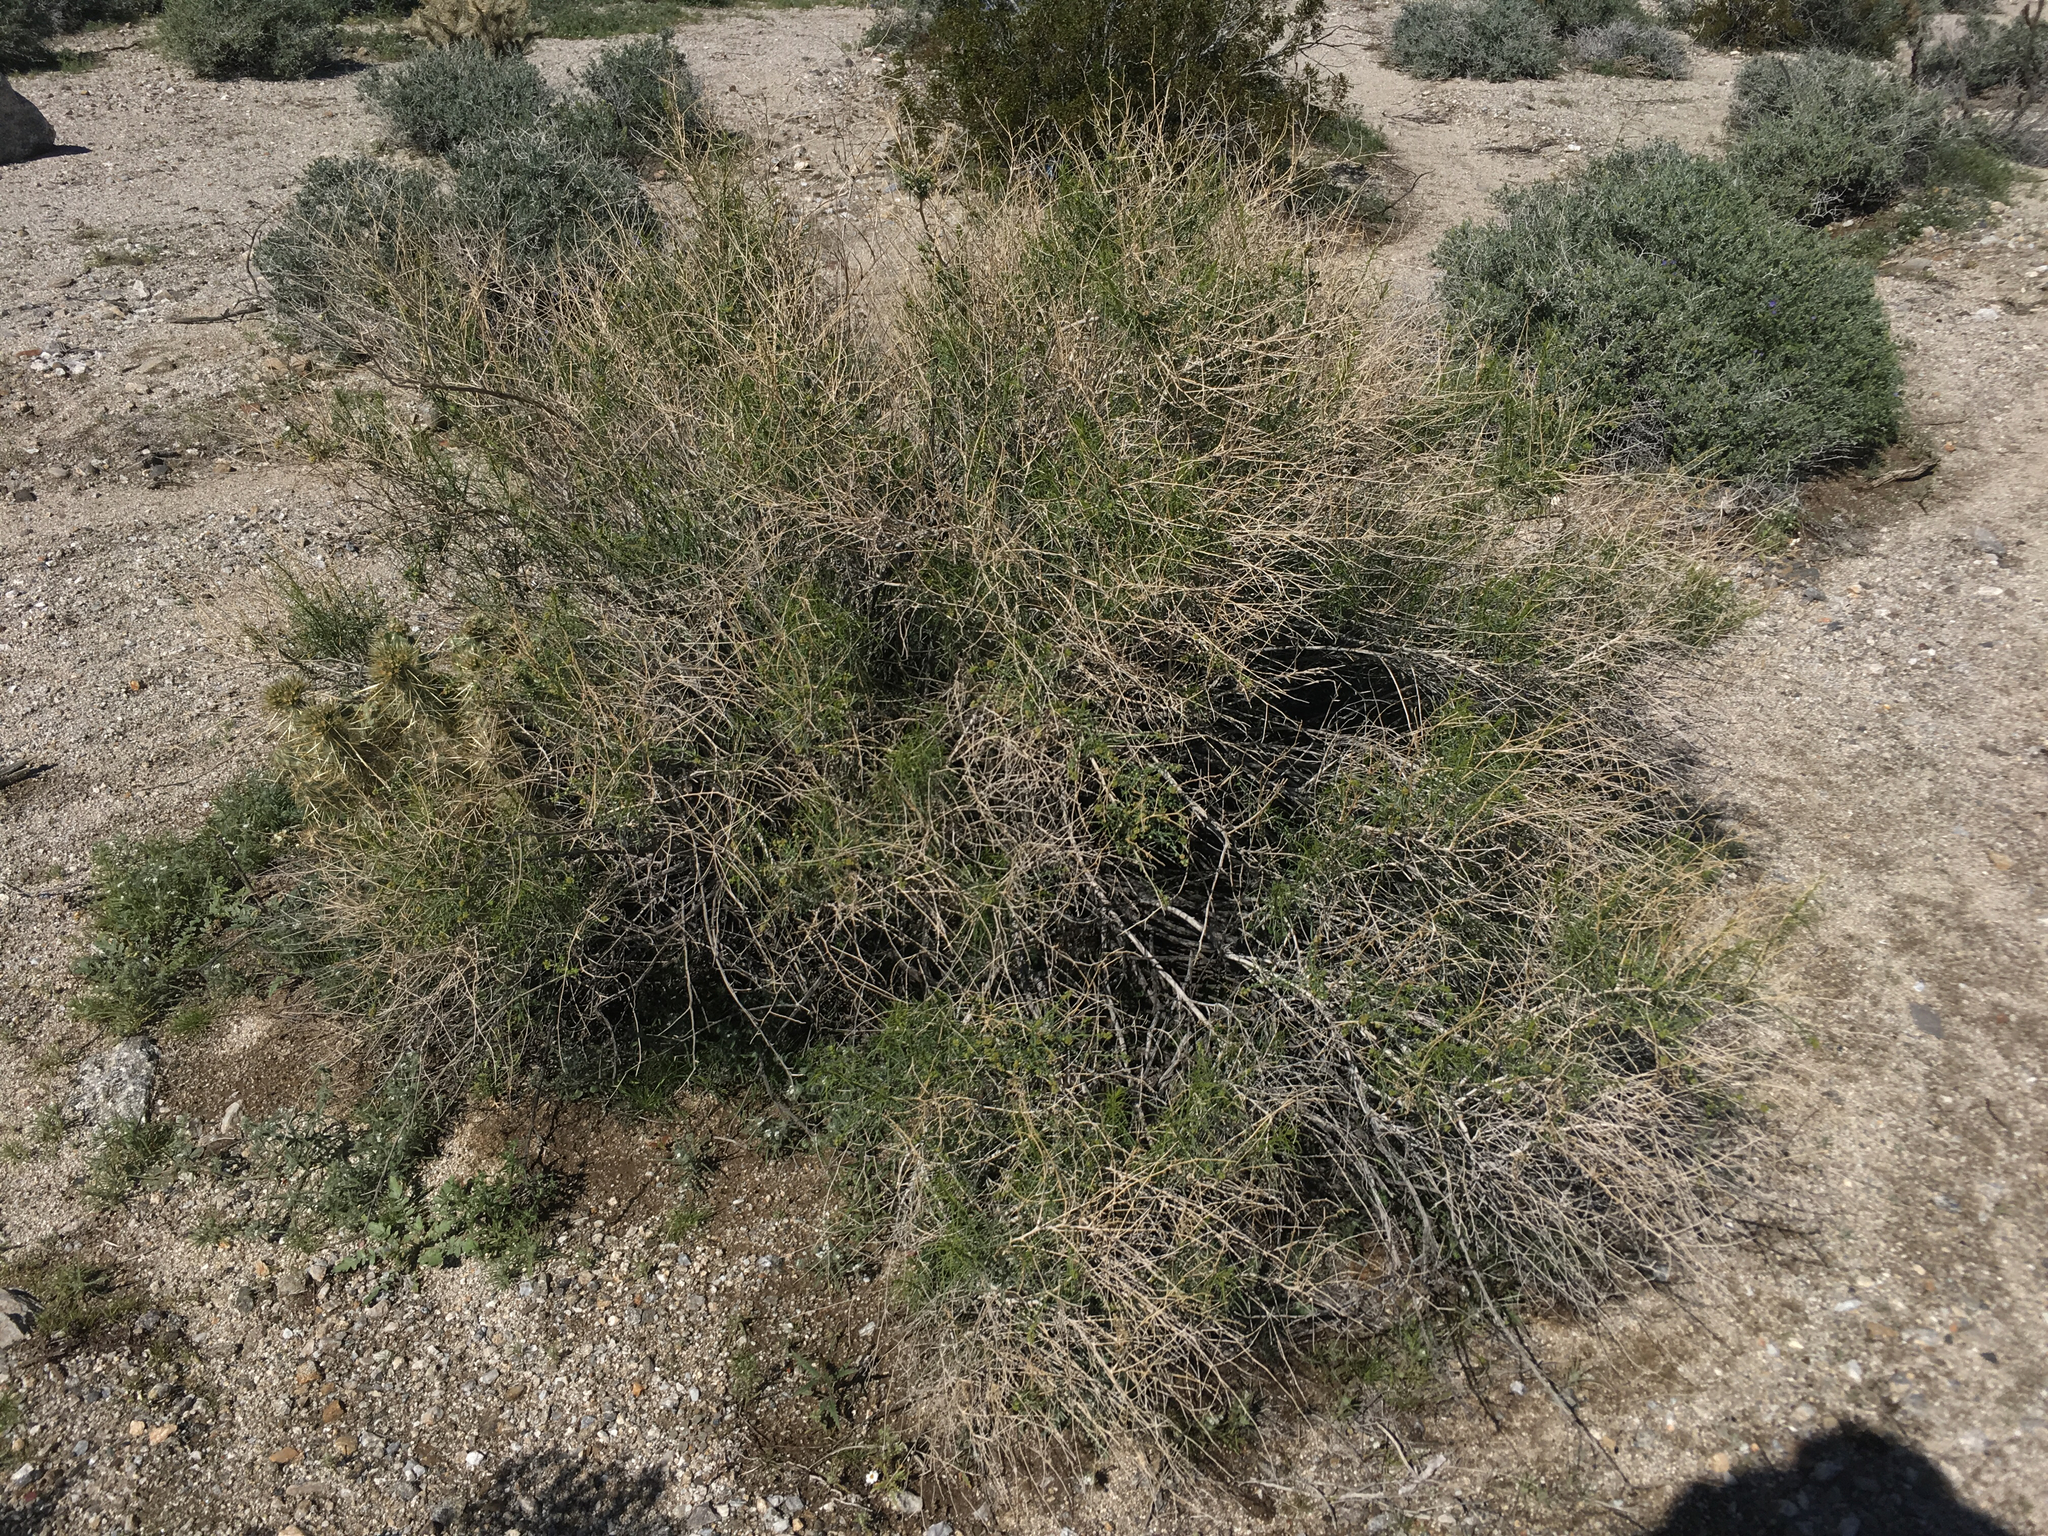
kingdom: Plantae
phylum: Tracheophyta
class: Magnoliopsida
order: Asterales
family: Asteraceae
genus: Ambrosia
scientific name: Ambrosia salsola
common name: Burrobrush
